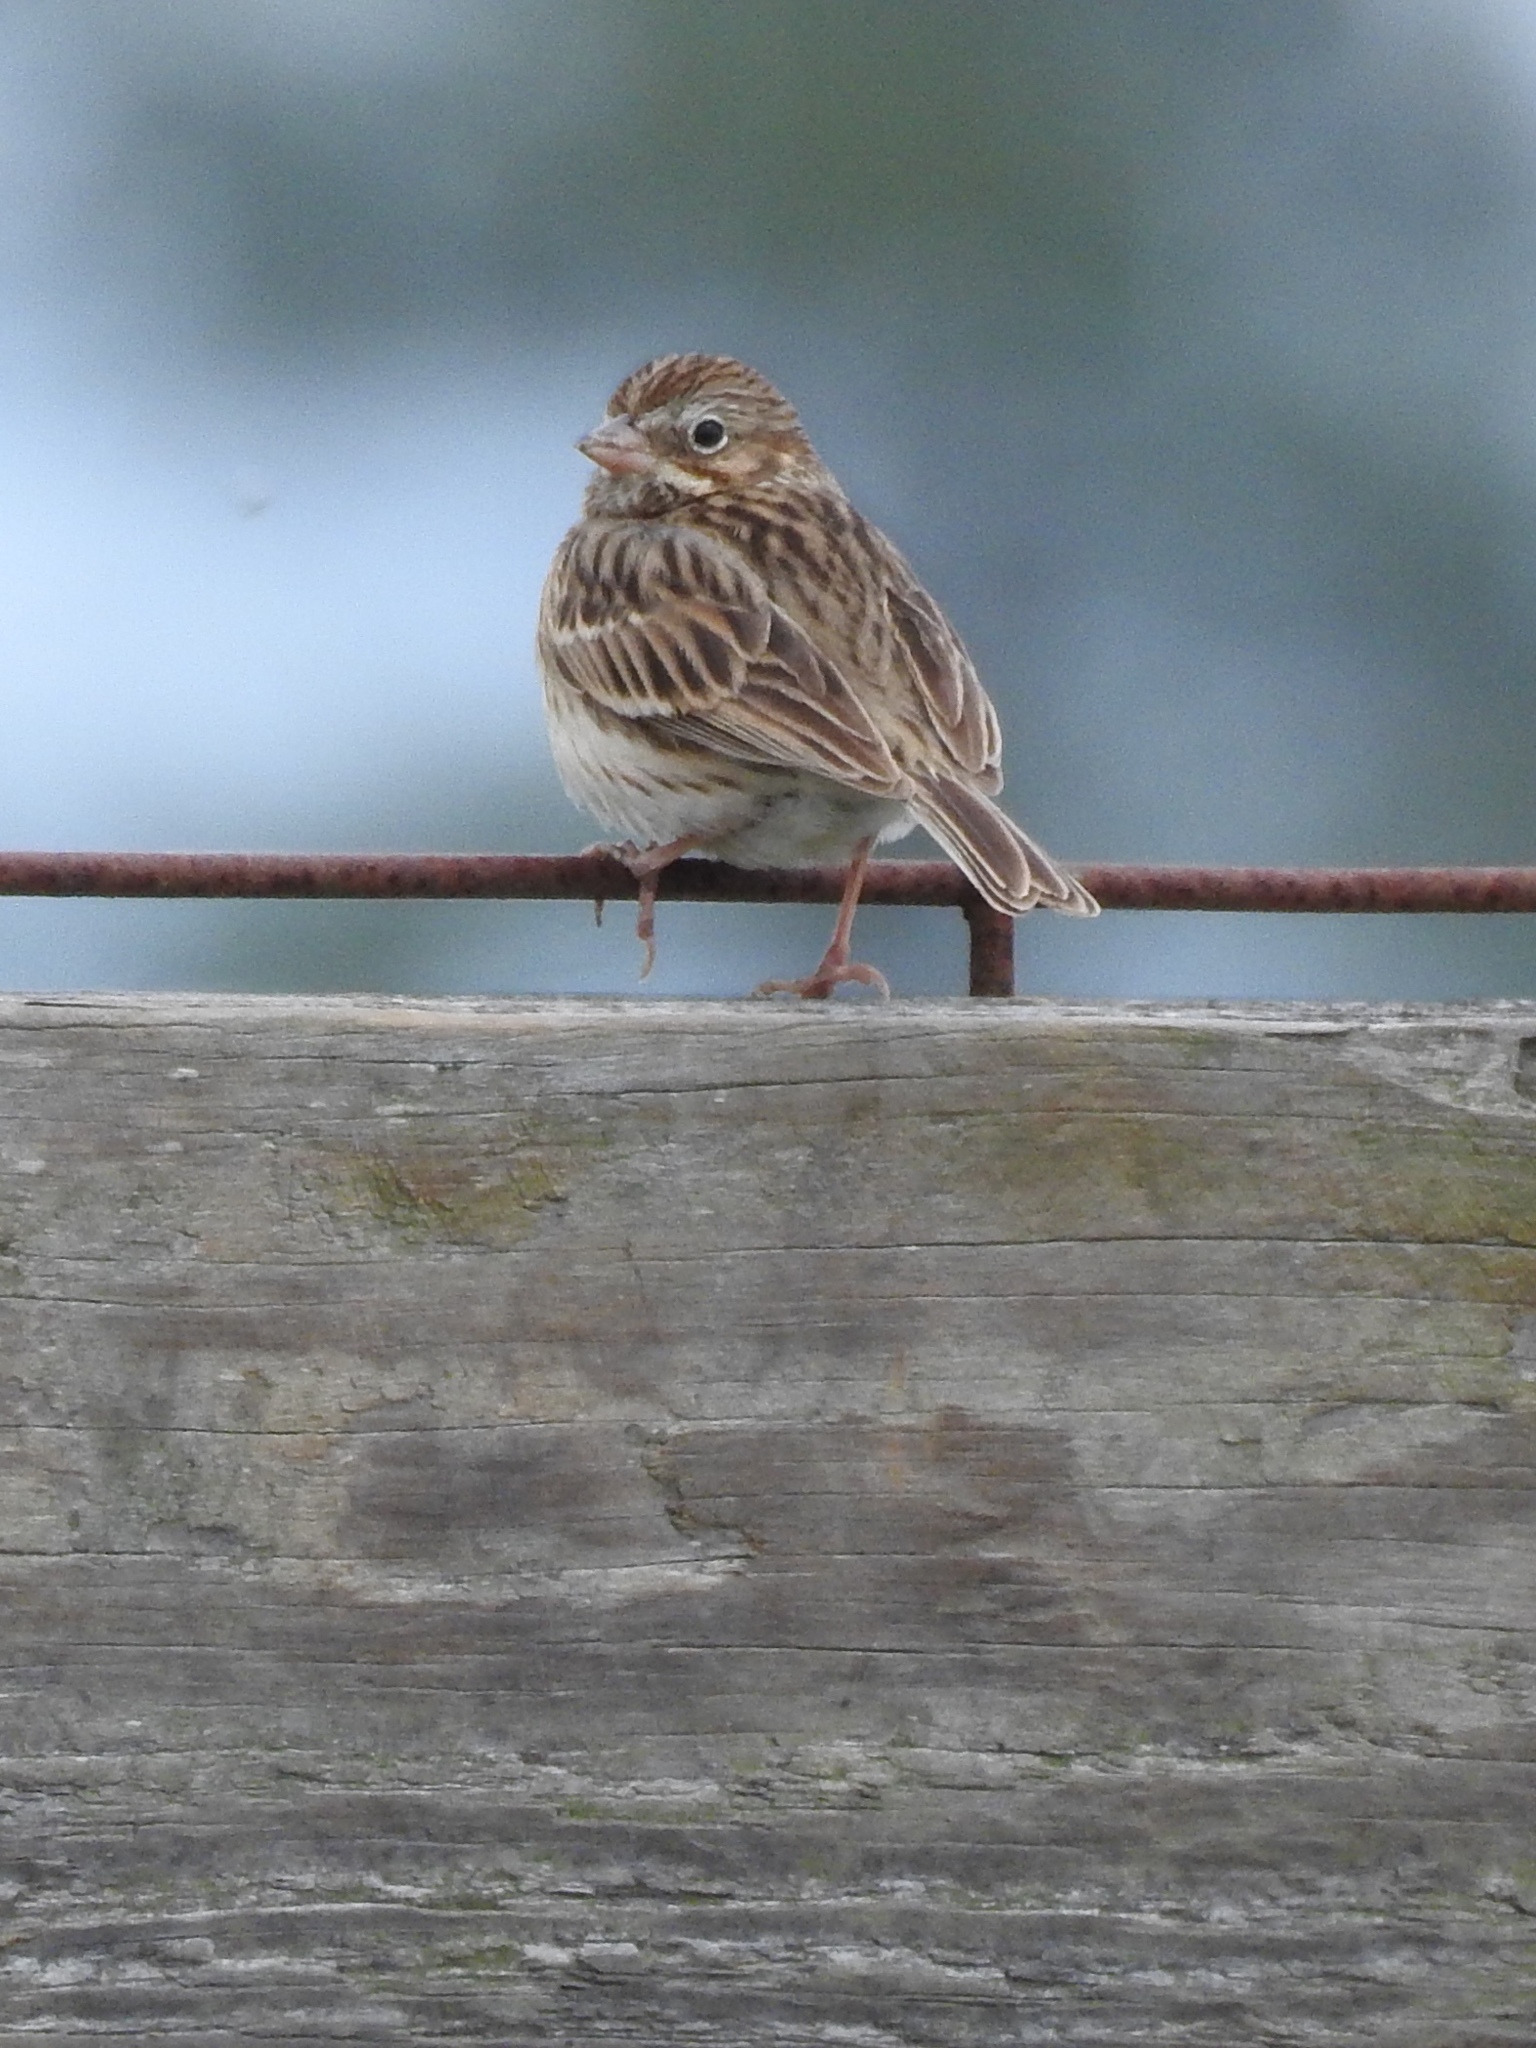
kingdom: Animalia
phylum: Chordata
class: Aves
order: Passeriformes
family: Passerellidae
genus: Pooecetes
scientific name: Pooecetes gramineus
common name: Vesper sparrow
